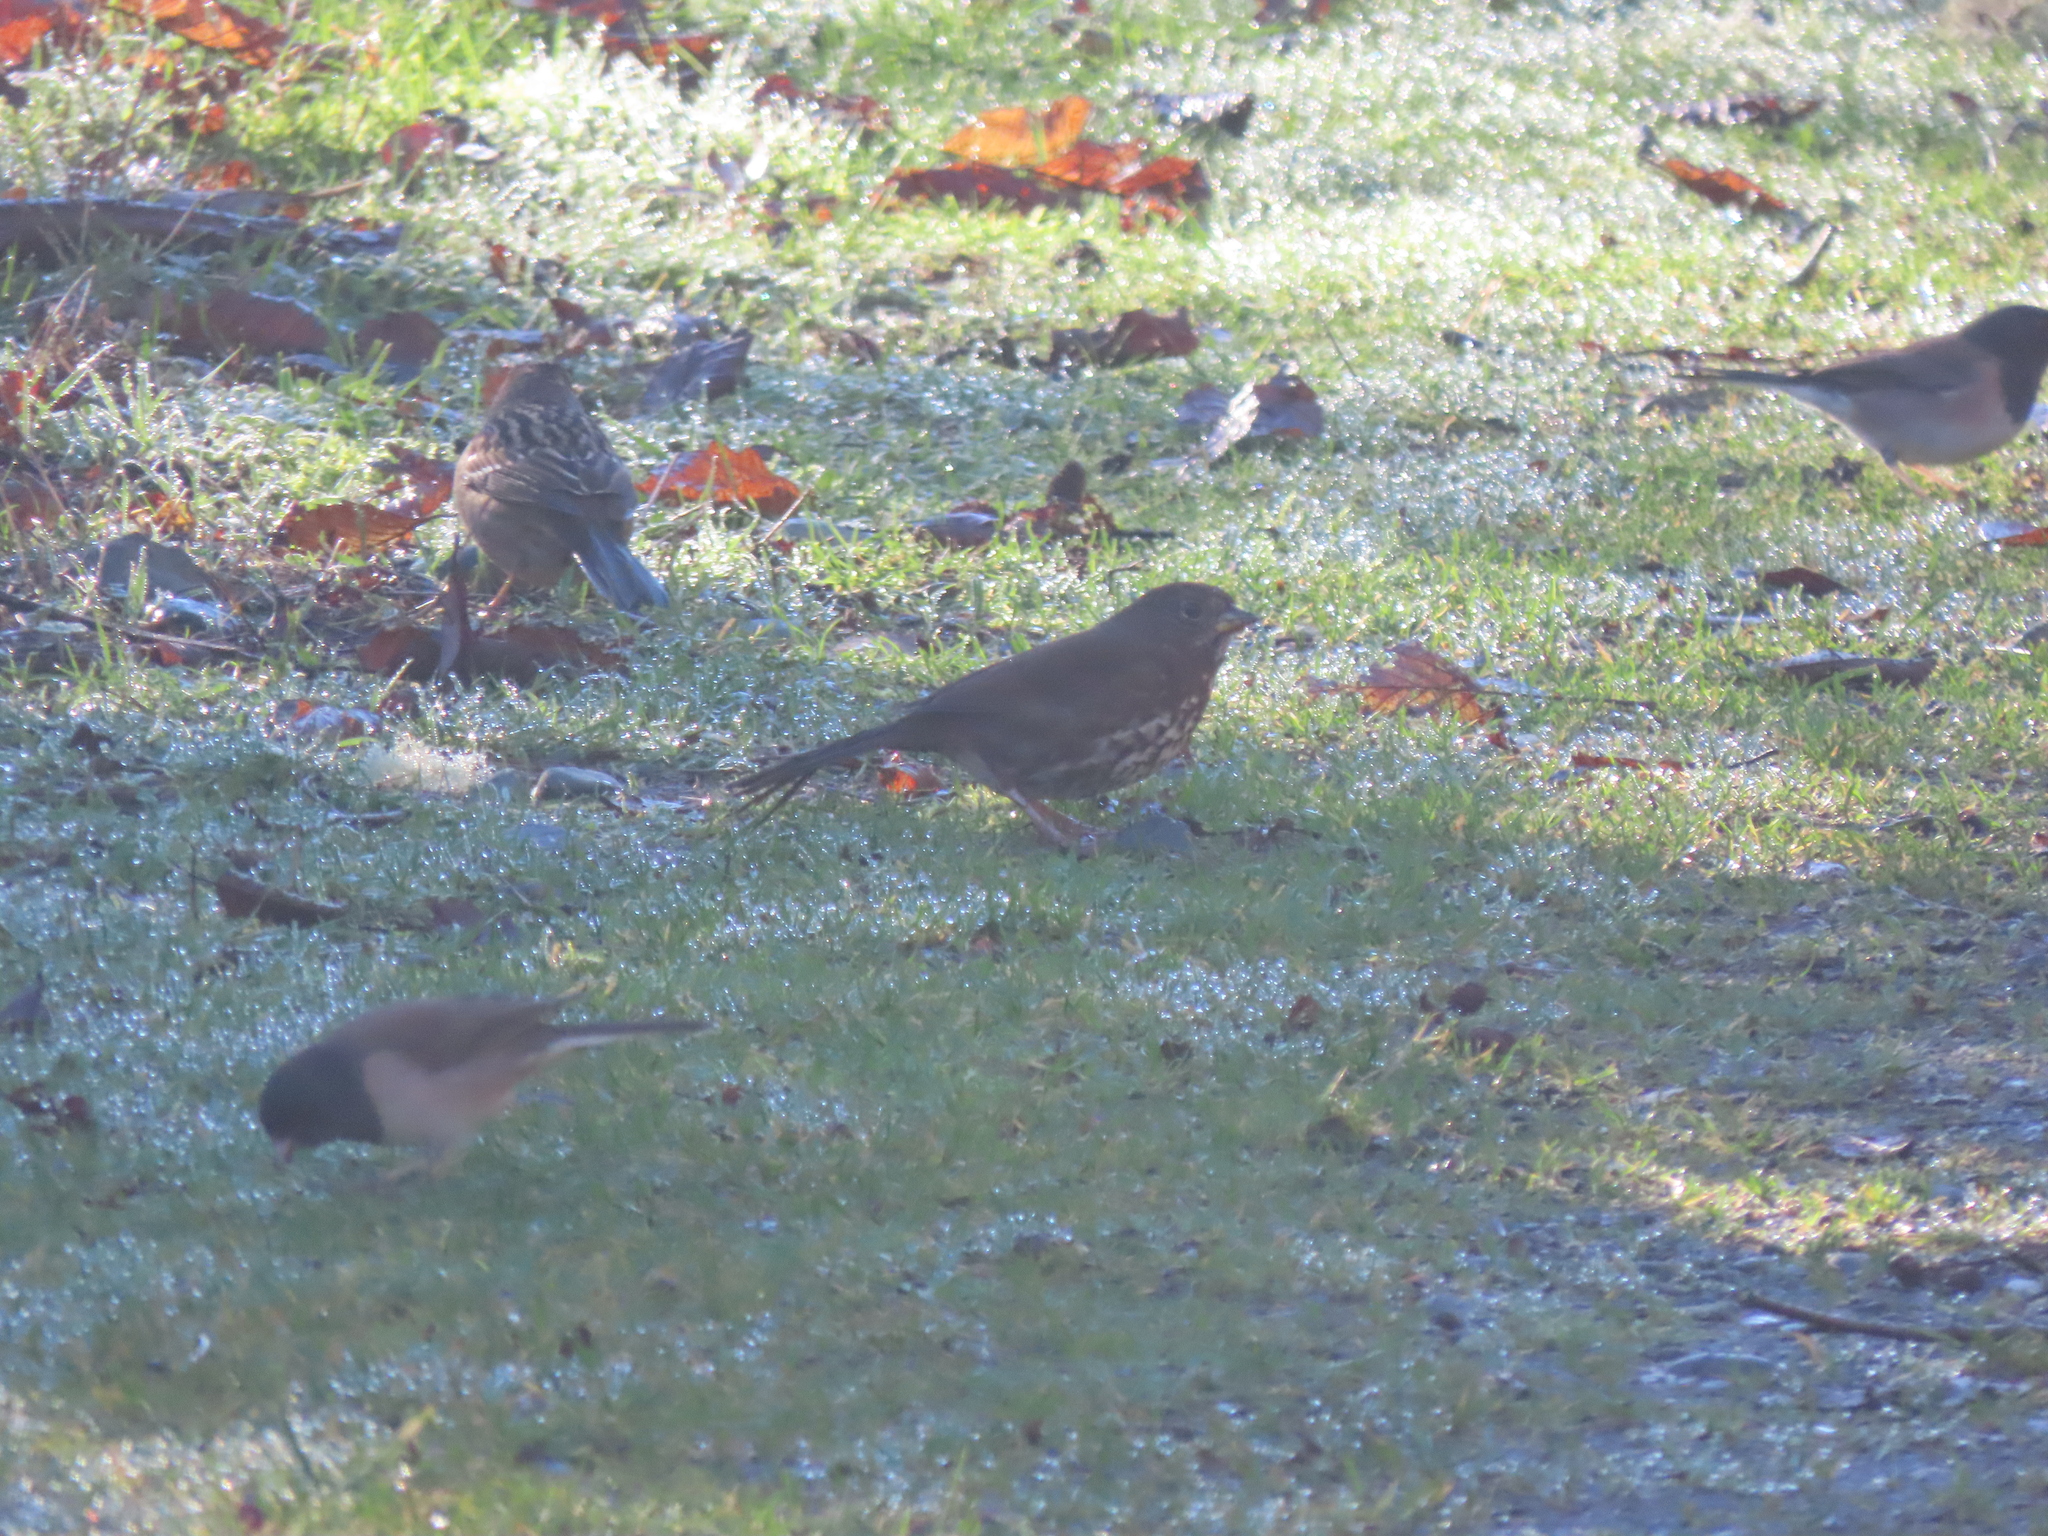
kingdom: Animalia
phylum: Chordata
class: Aves
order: Passeriformes
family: Passerellidae
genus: Passerella
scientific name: Passerella iliaca
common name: Fox sparrow
